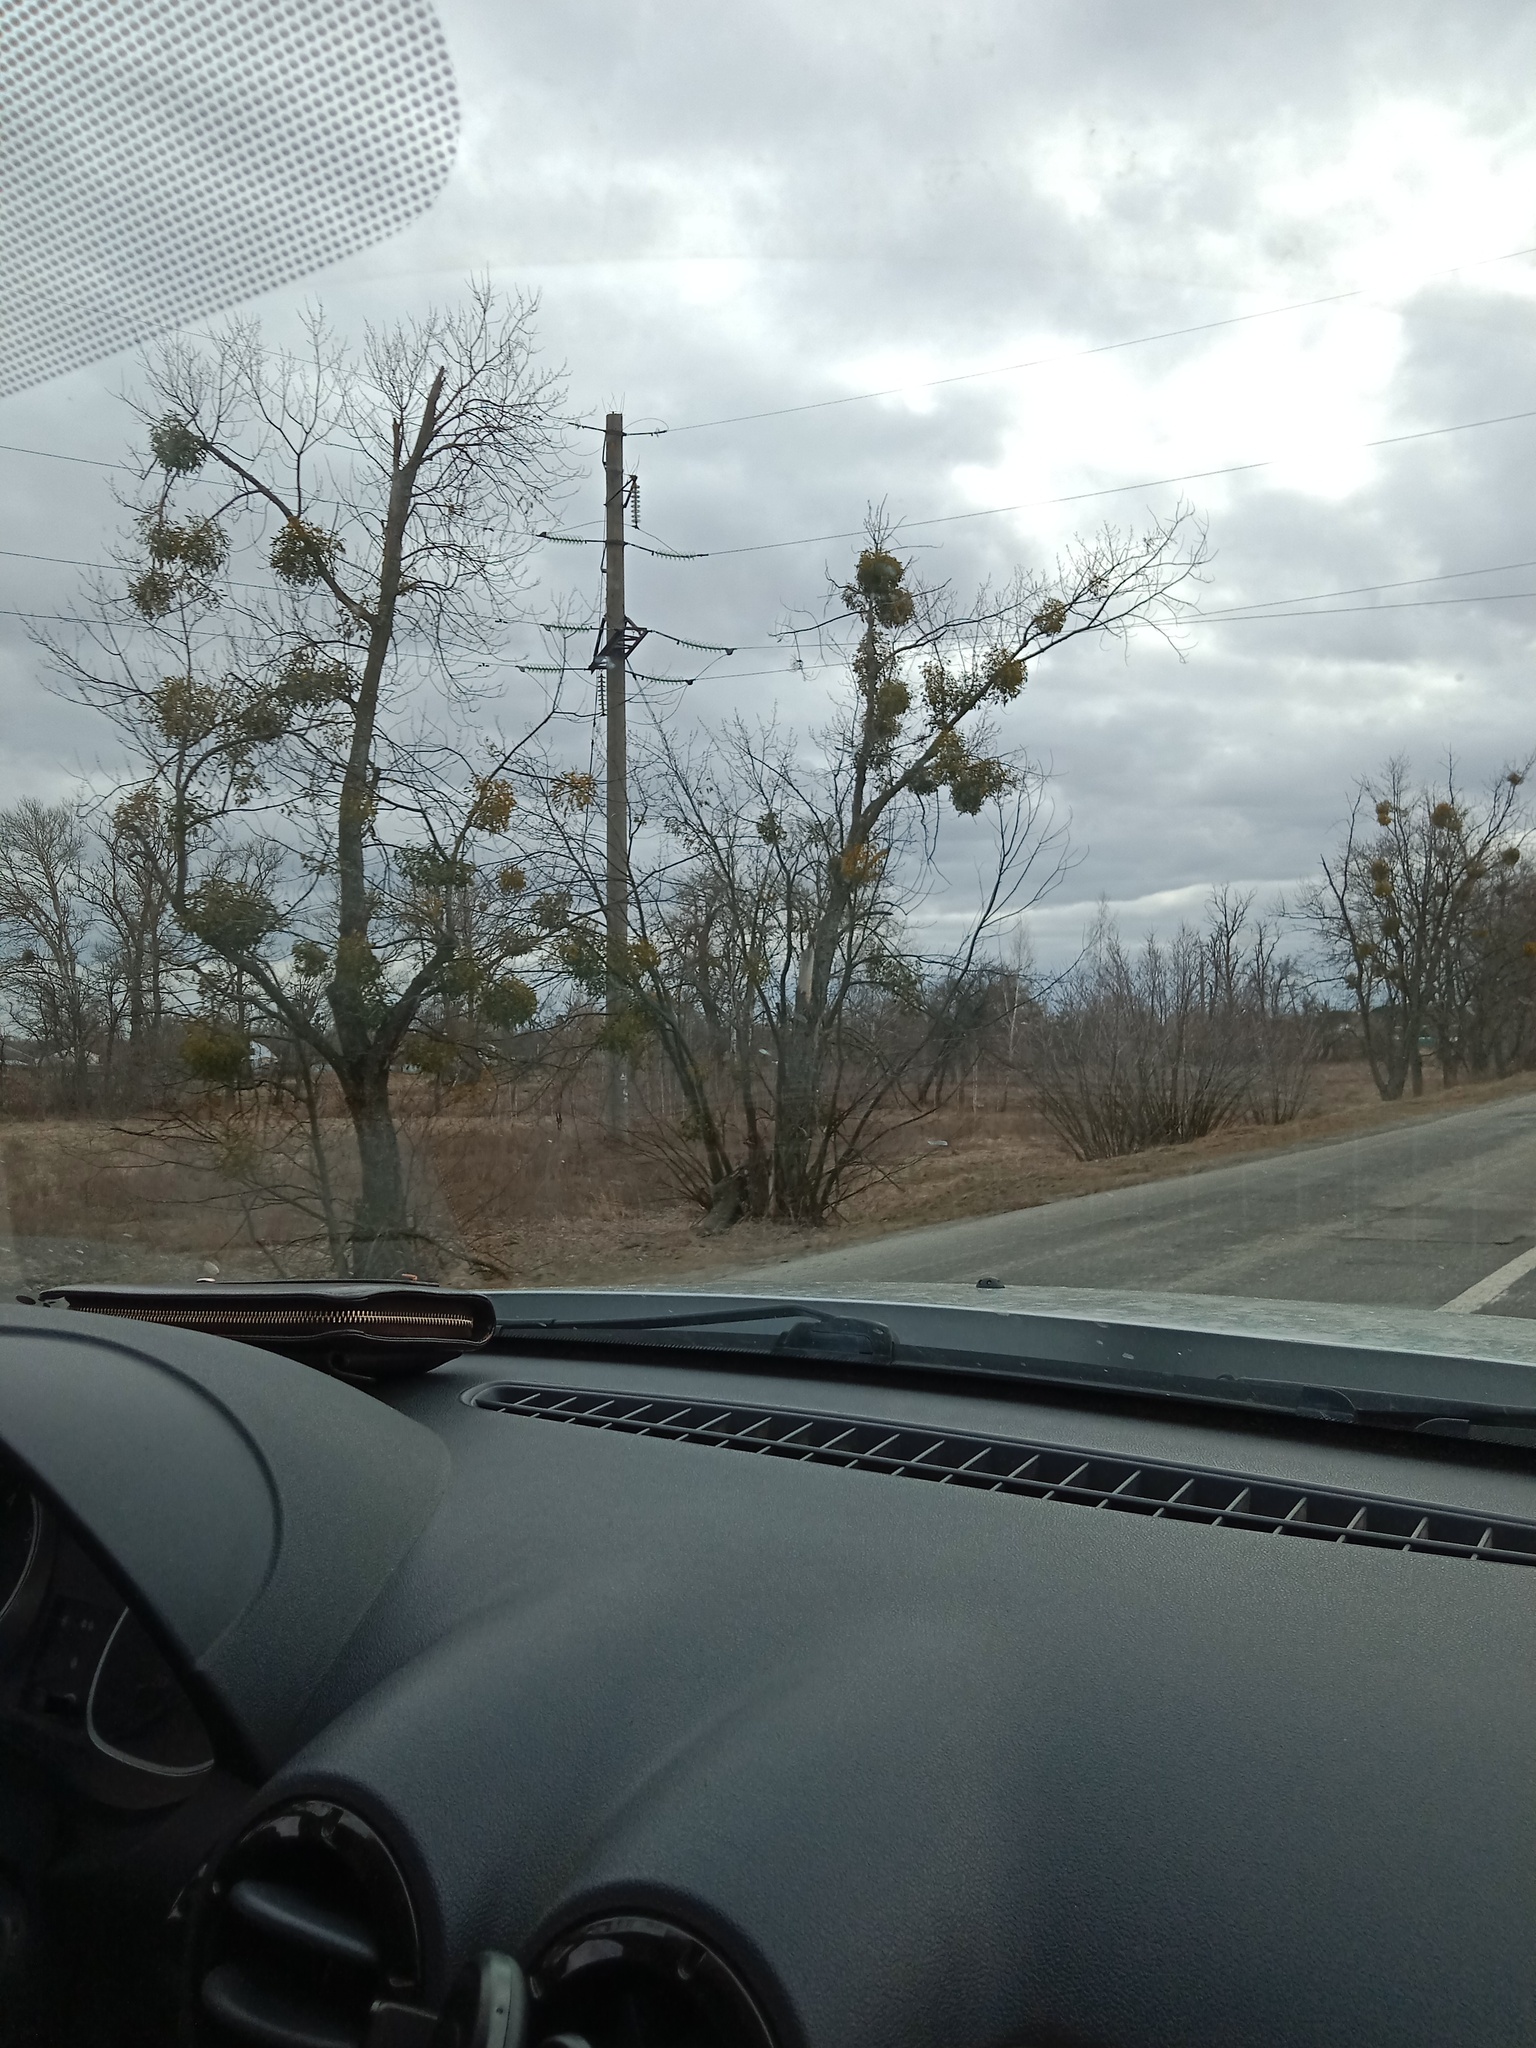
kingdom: Plantae
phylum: Tracheophyta
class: Magnoliopsida
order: Santalales
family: Viscaceae
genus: Viscum
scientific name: Viscum album
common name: Mistletoe
